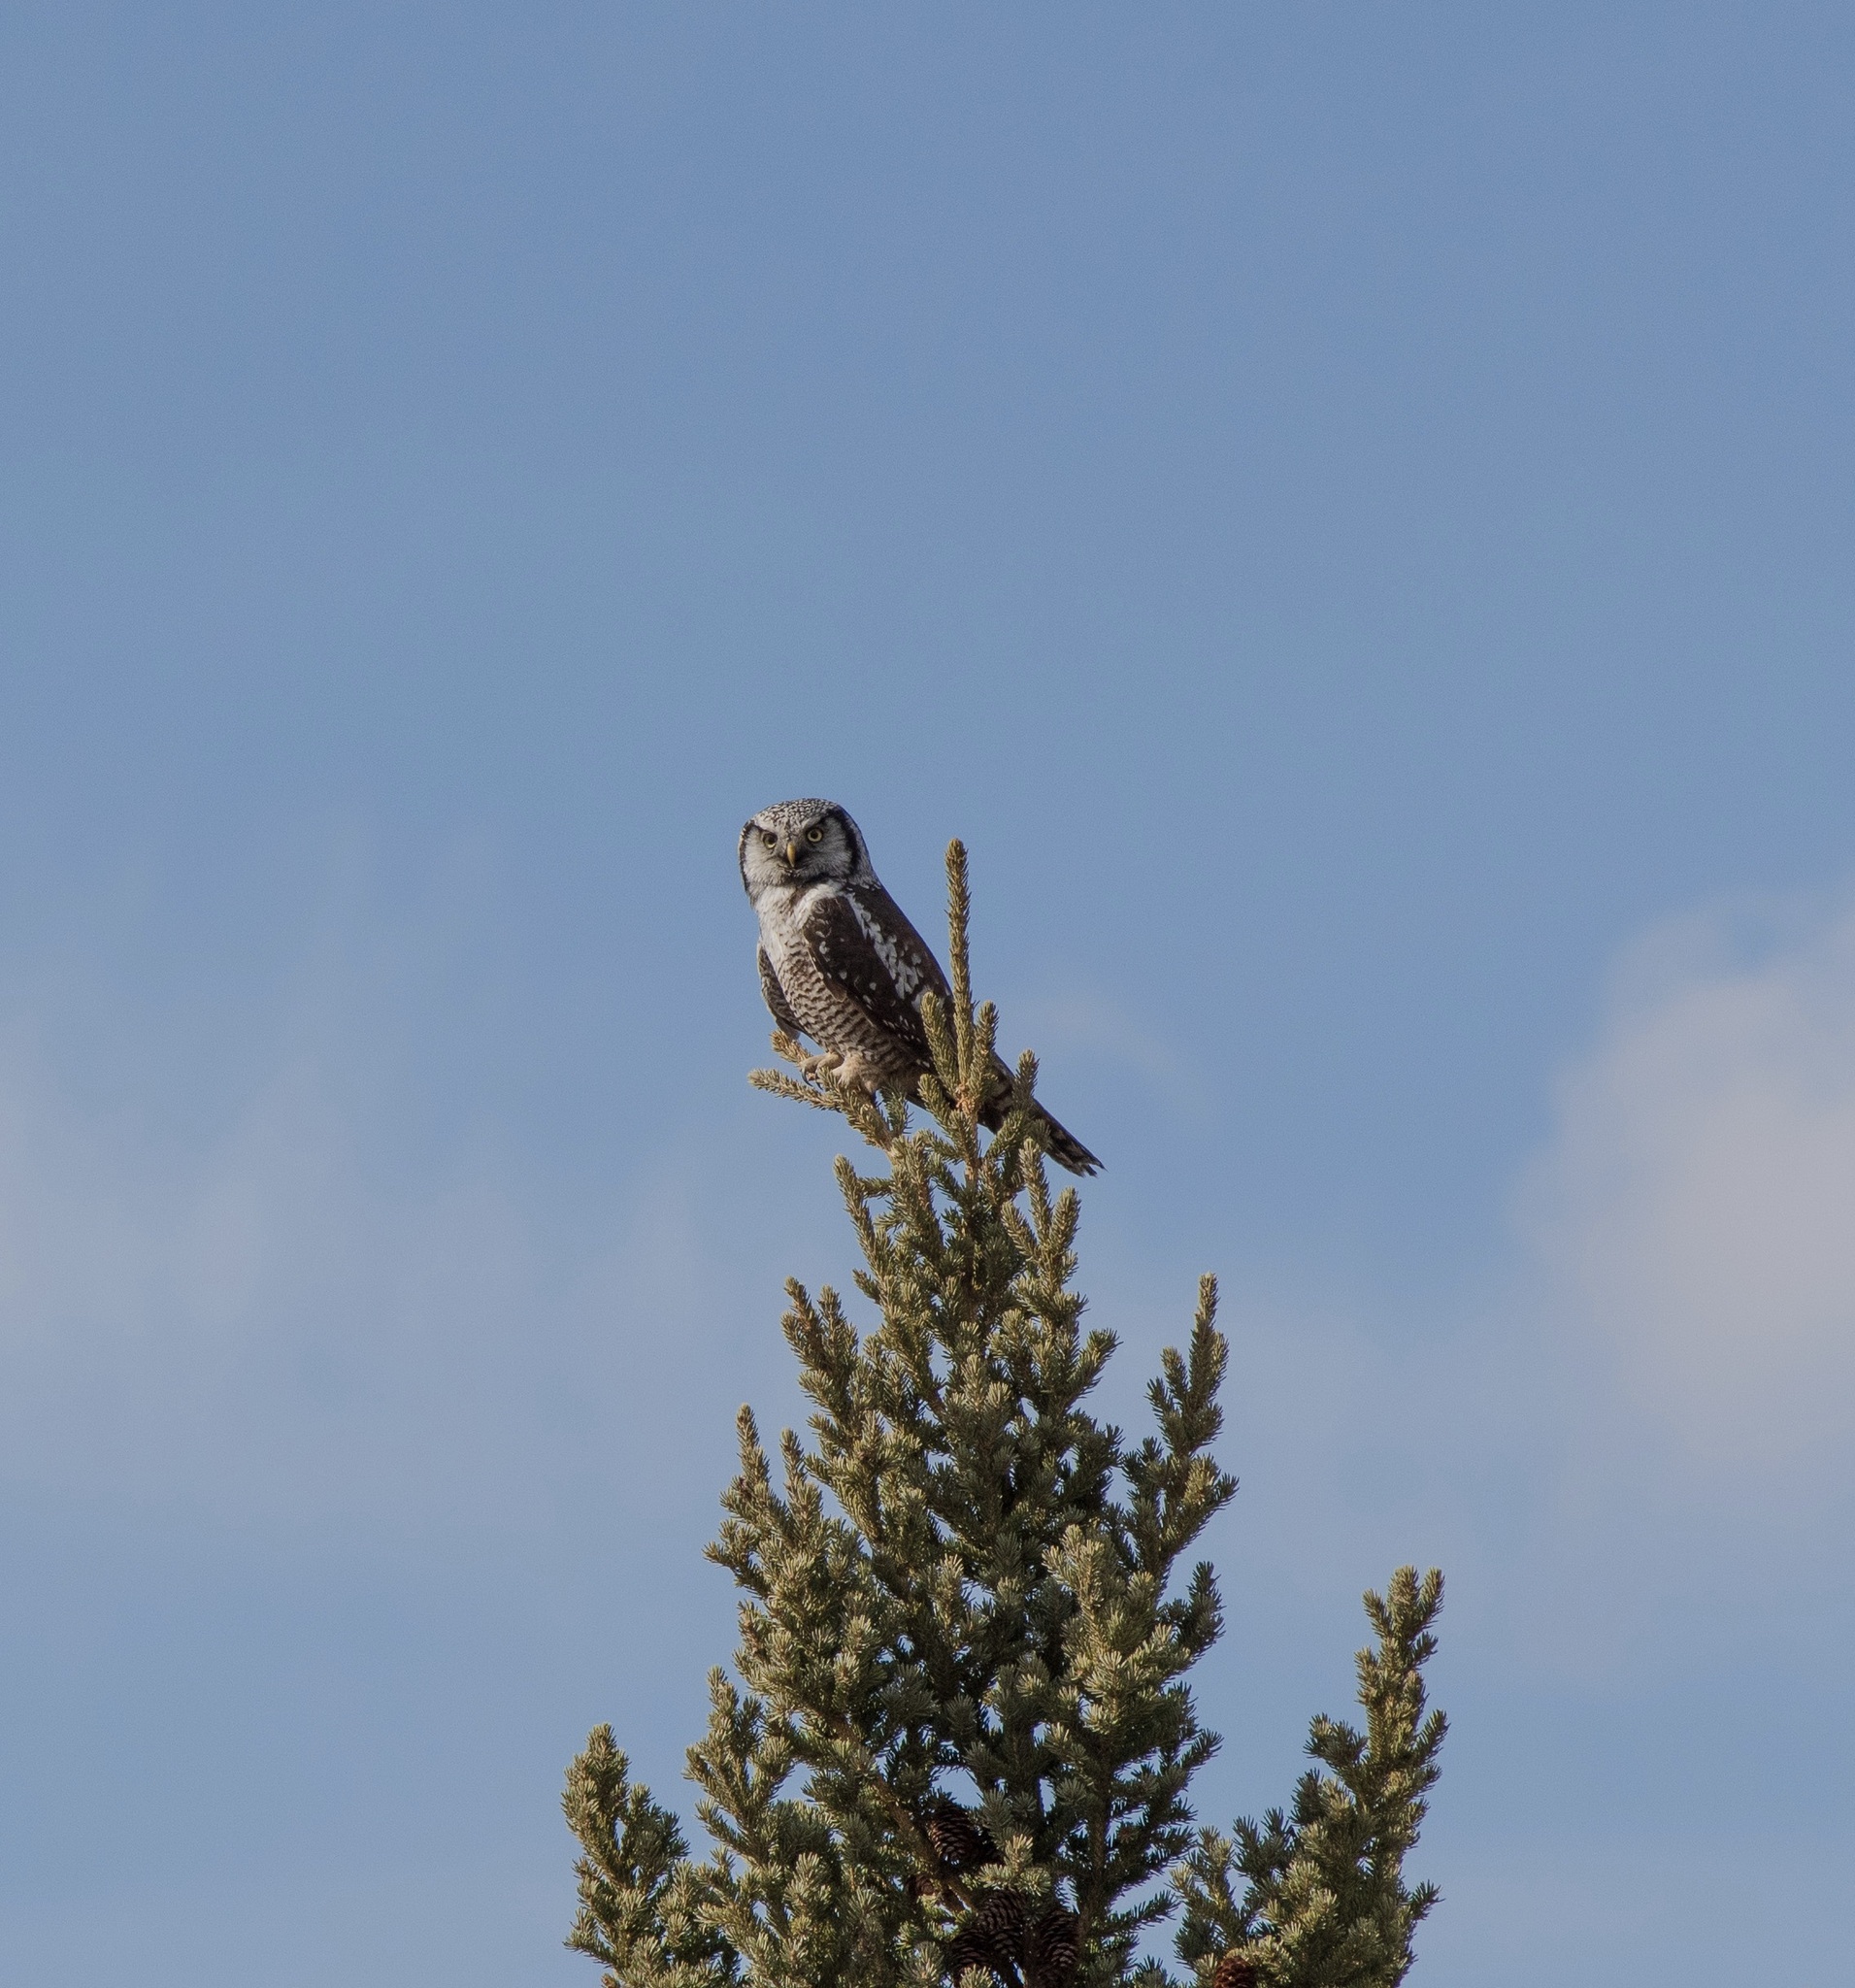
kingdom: Animalia
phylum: Chordata
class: Aves
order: Strigiformes
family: Strigidae
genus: Surnia
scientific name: Surnia ulula
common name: Northern hawk-owl
